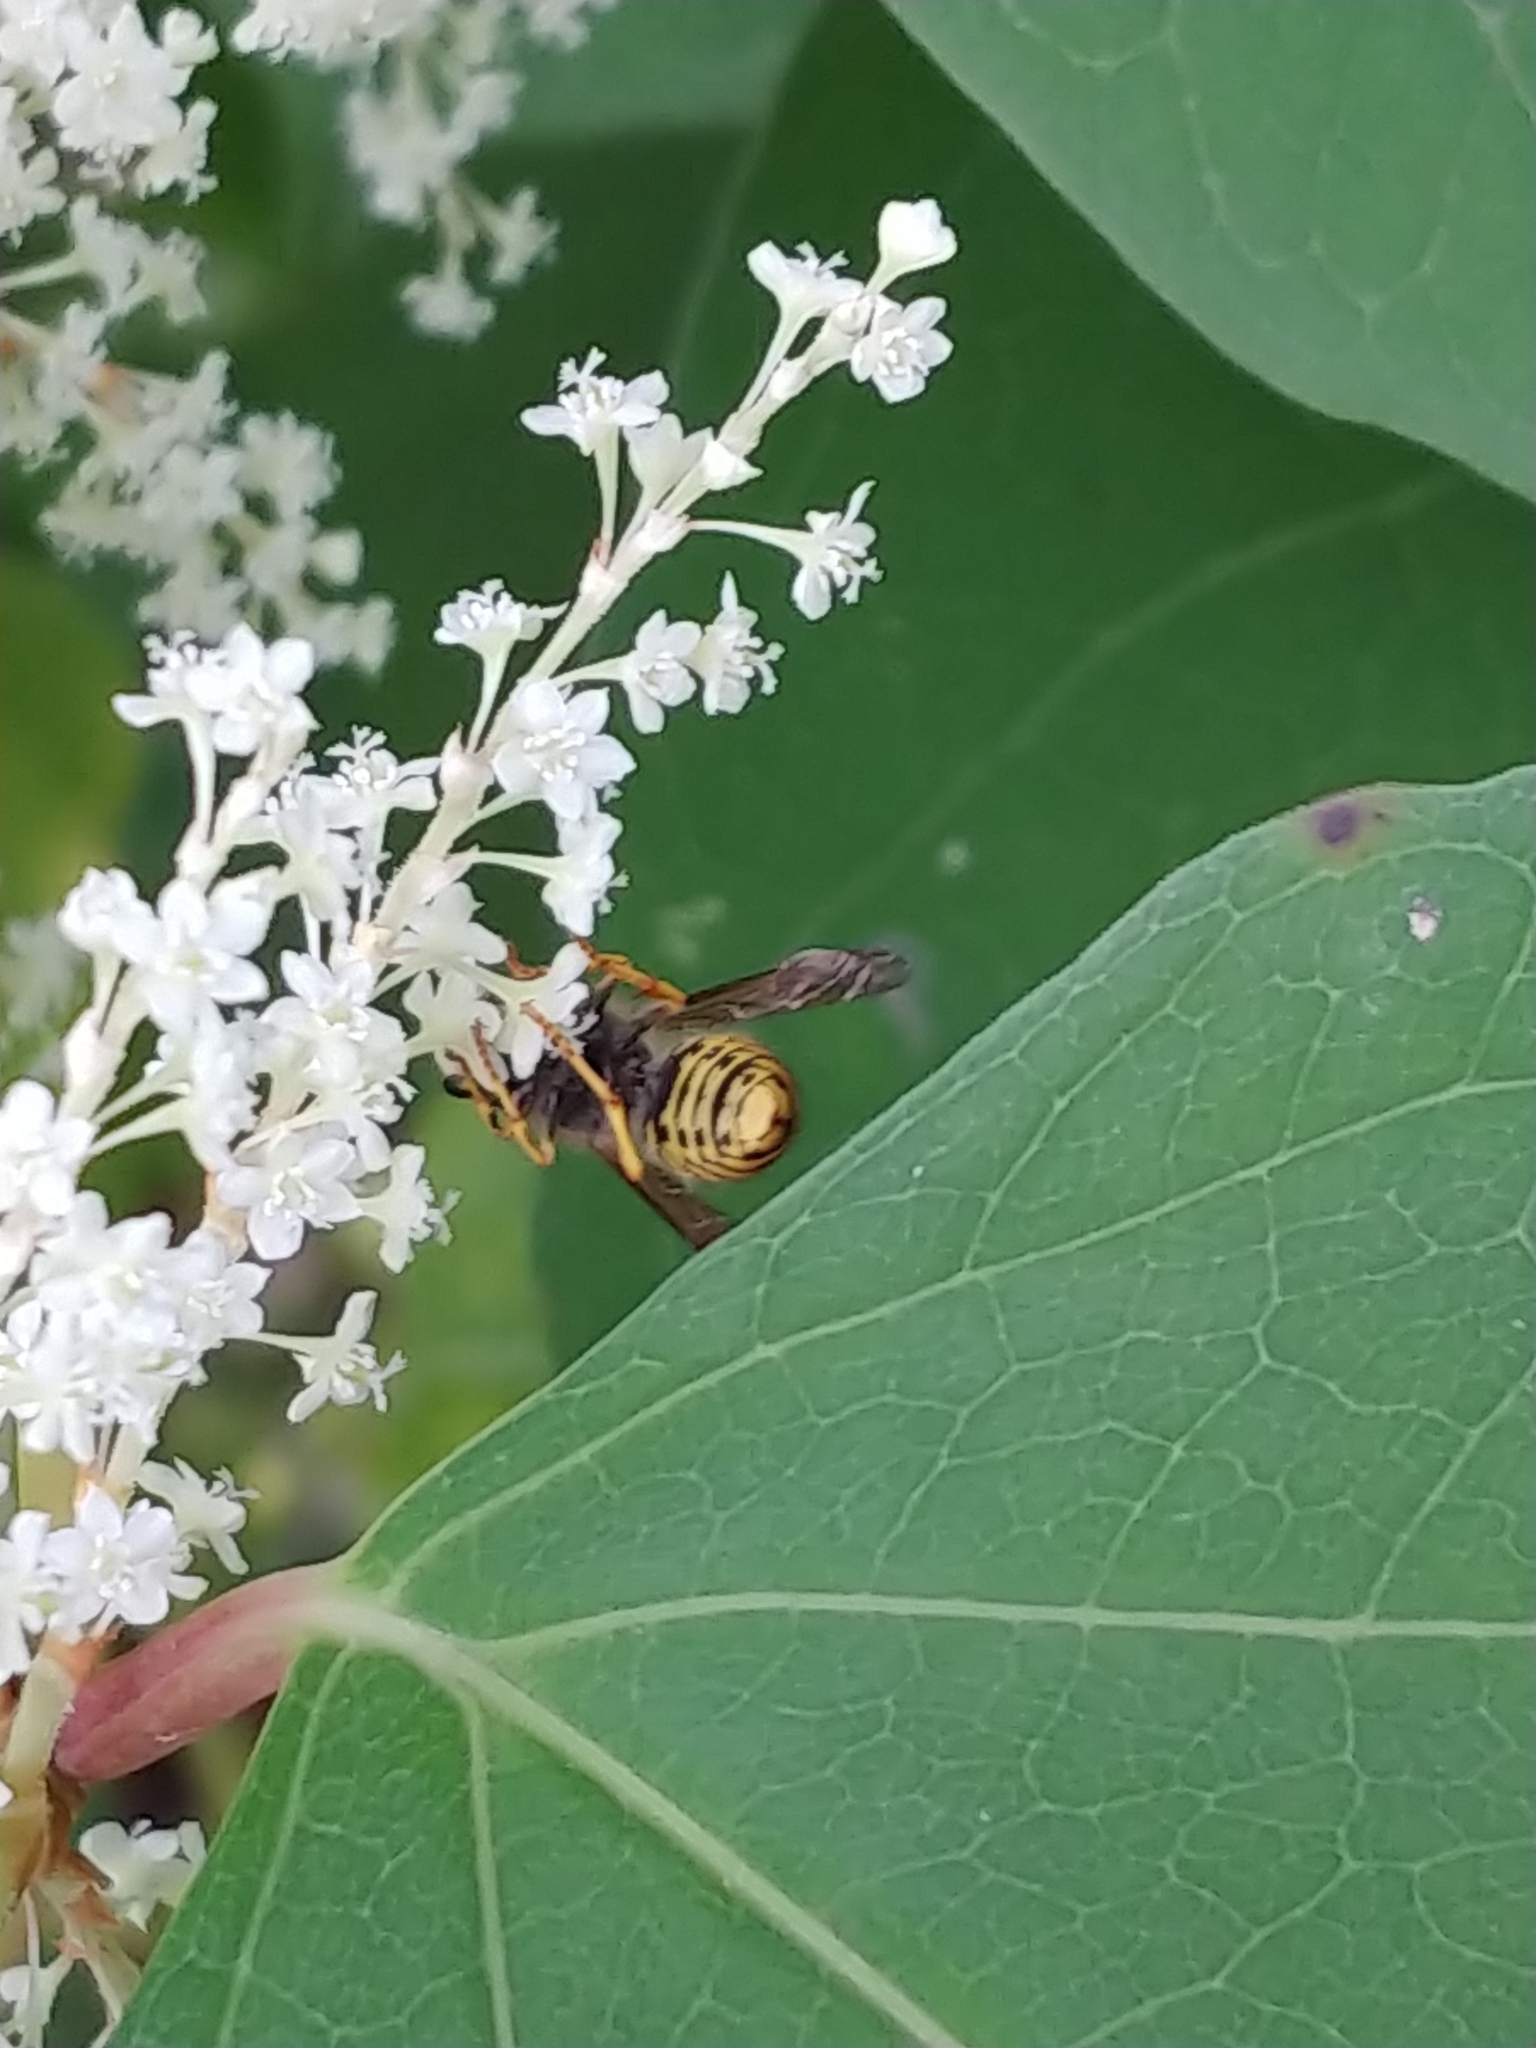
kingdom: Animalia
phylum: Arthropoda
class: Insecta
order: Hymenoptera
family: Vespidae
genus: Dolichovespula
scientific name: Dolichovespula arenaria
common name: Aerial yellowjacket
